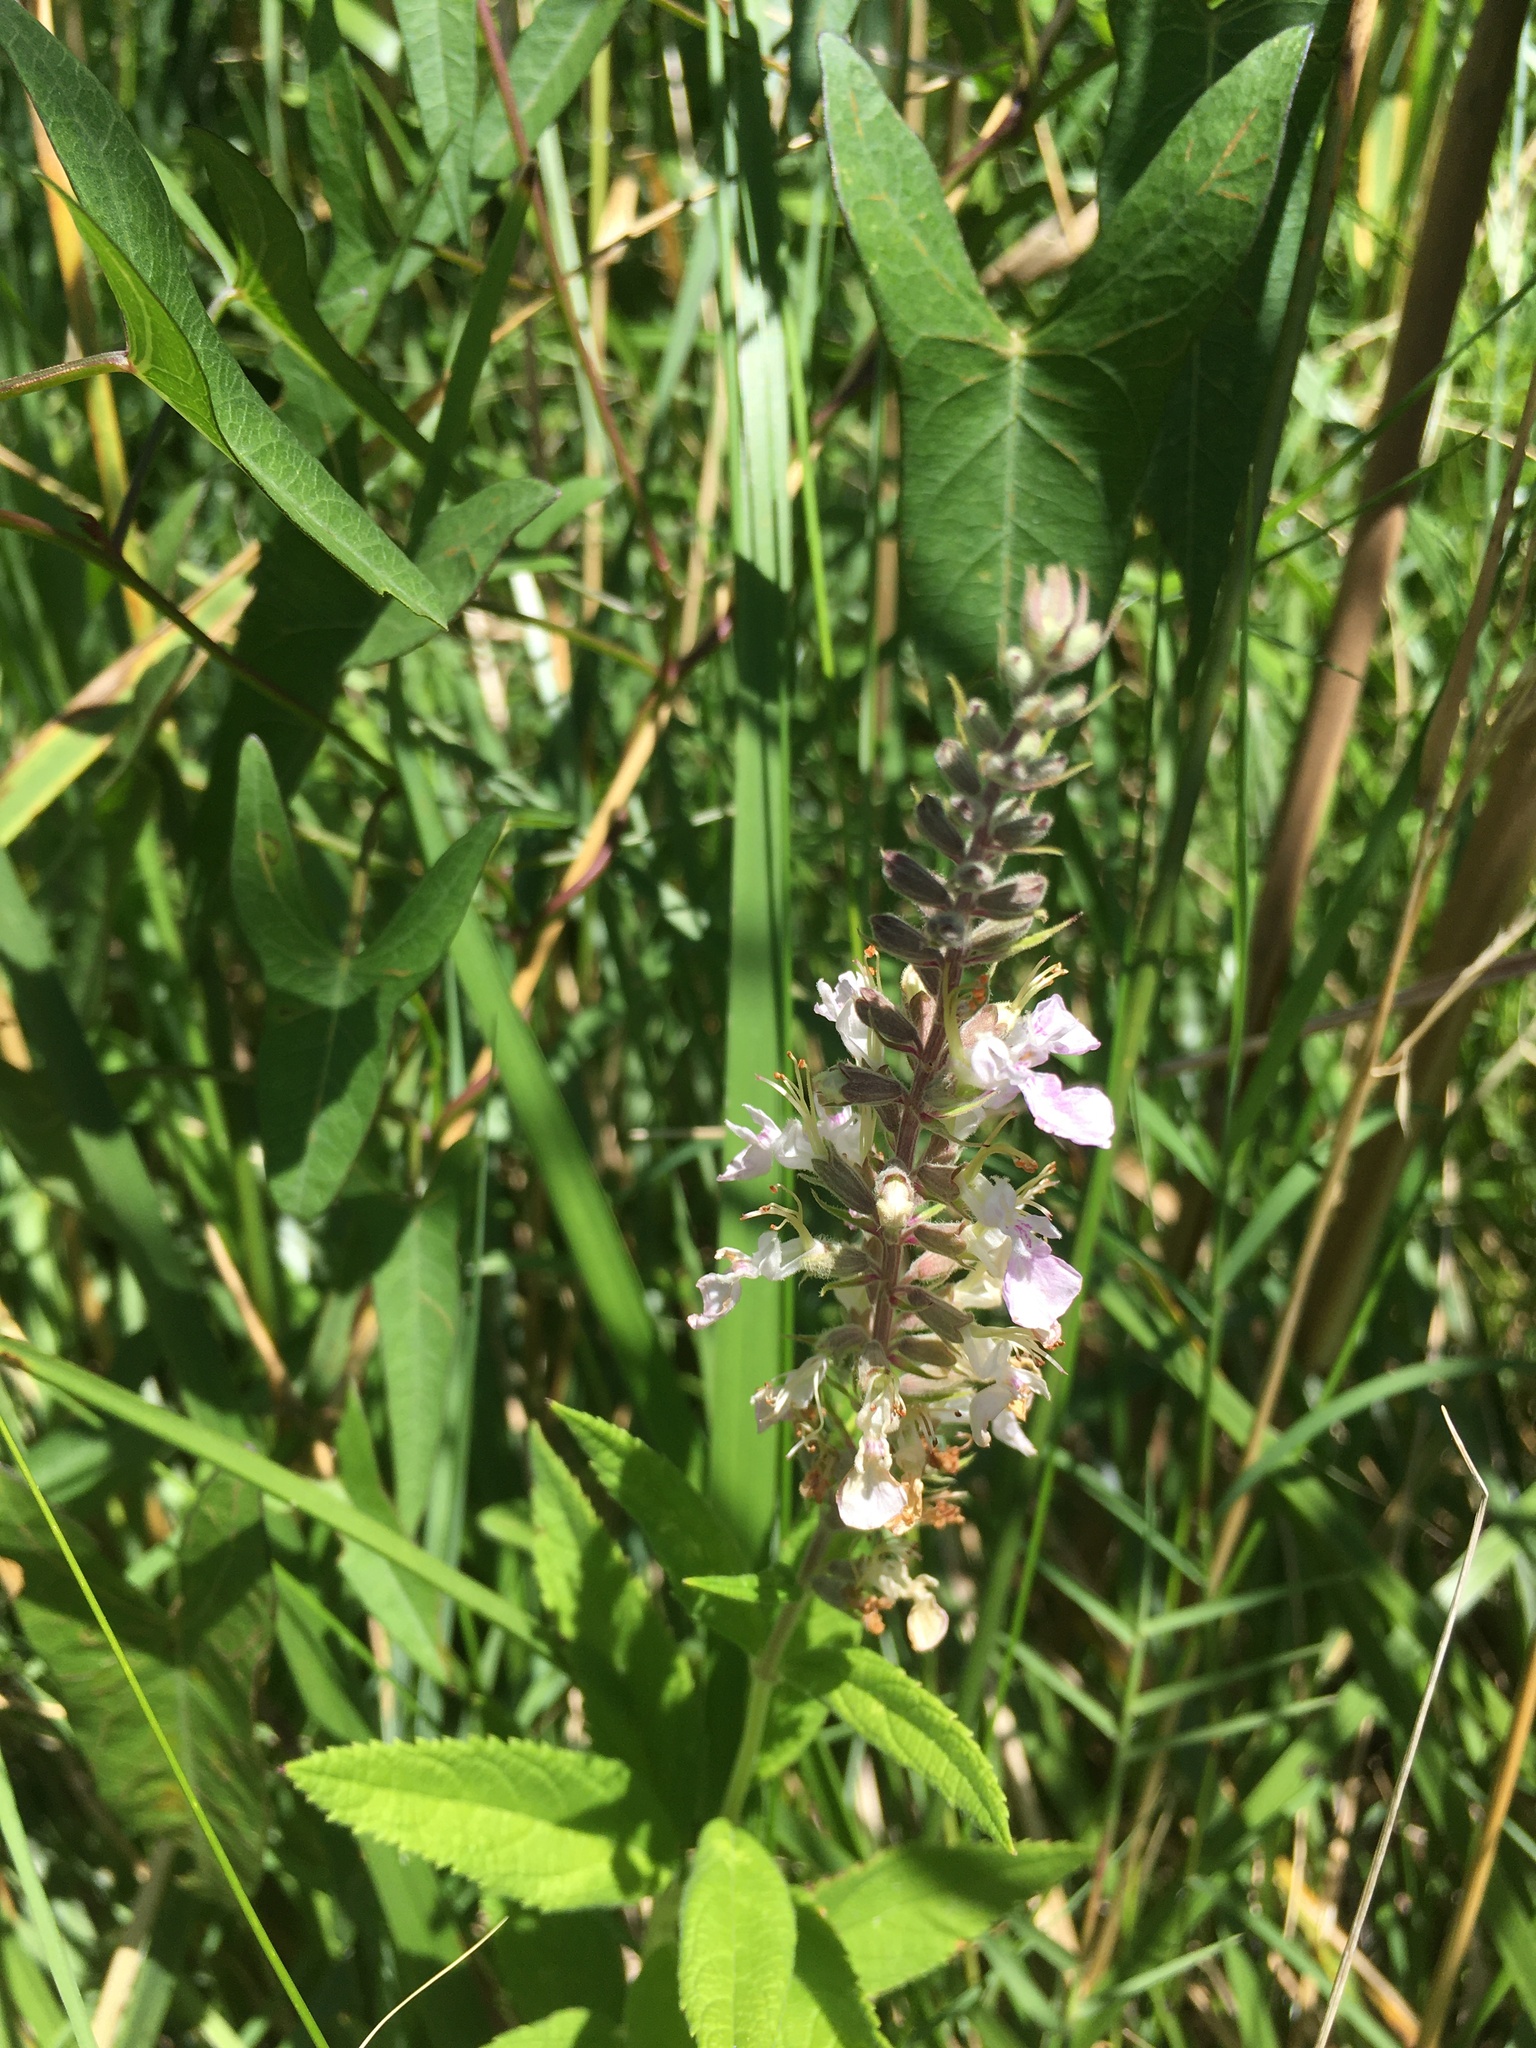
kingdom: Plantae
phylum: Tracheophyta
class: Magnoliopsida
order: Lamiales
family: Lamiaceae
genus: Teucrium
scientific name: Teucrium canadense
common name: American germander
